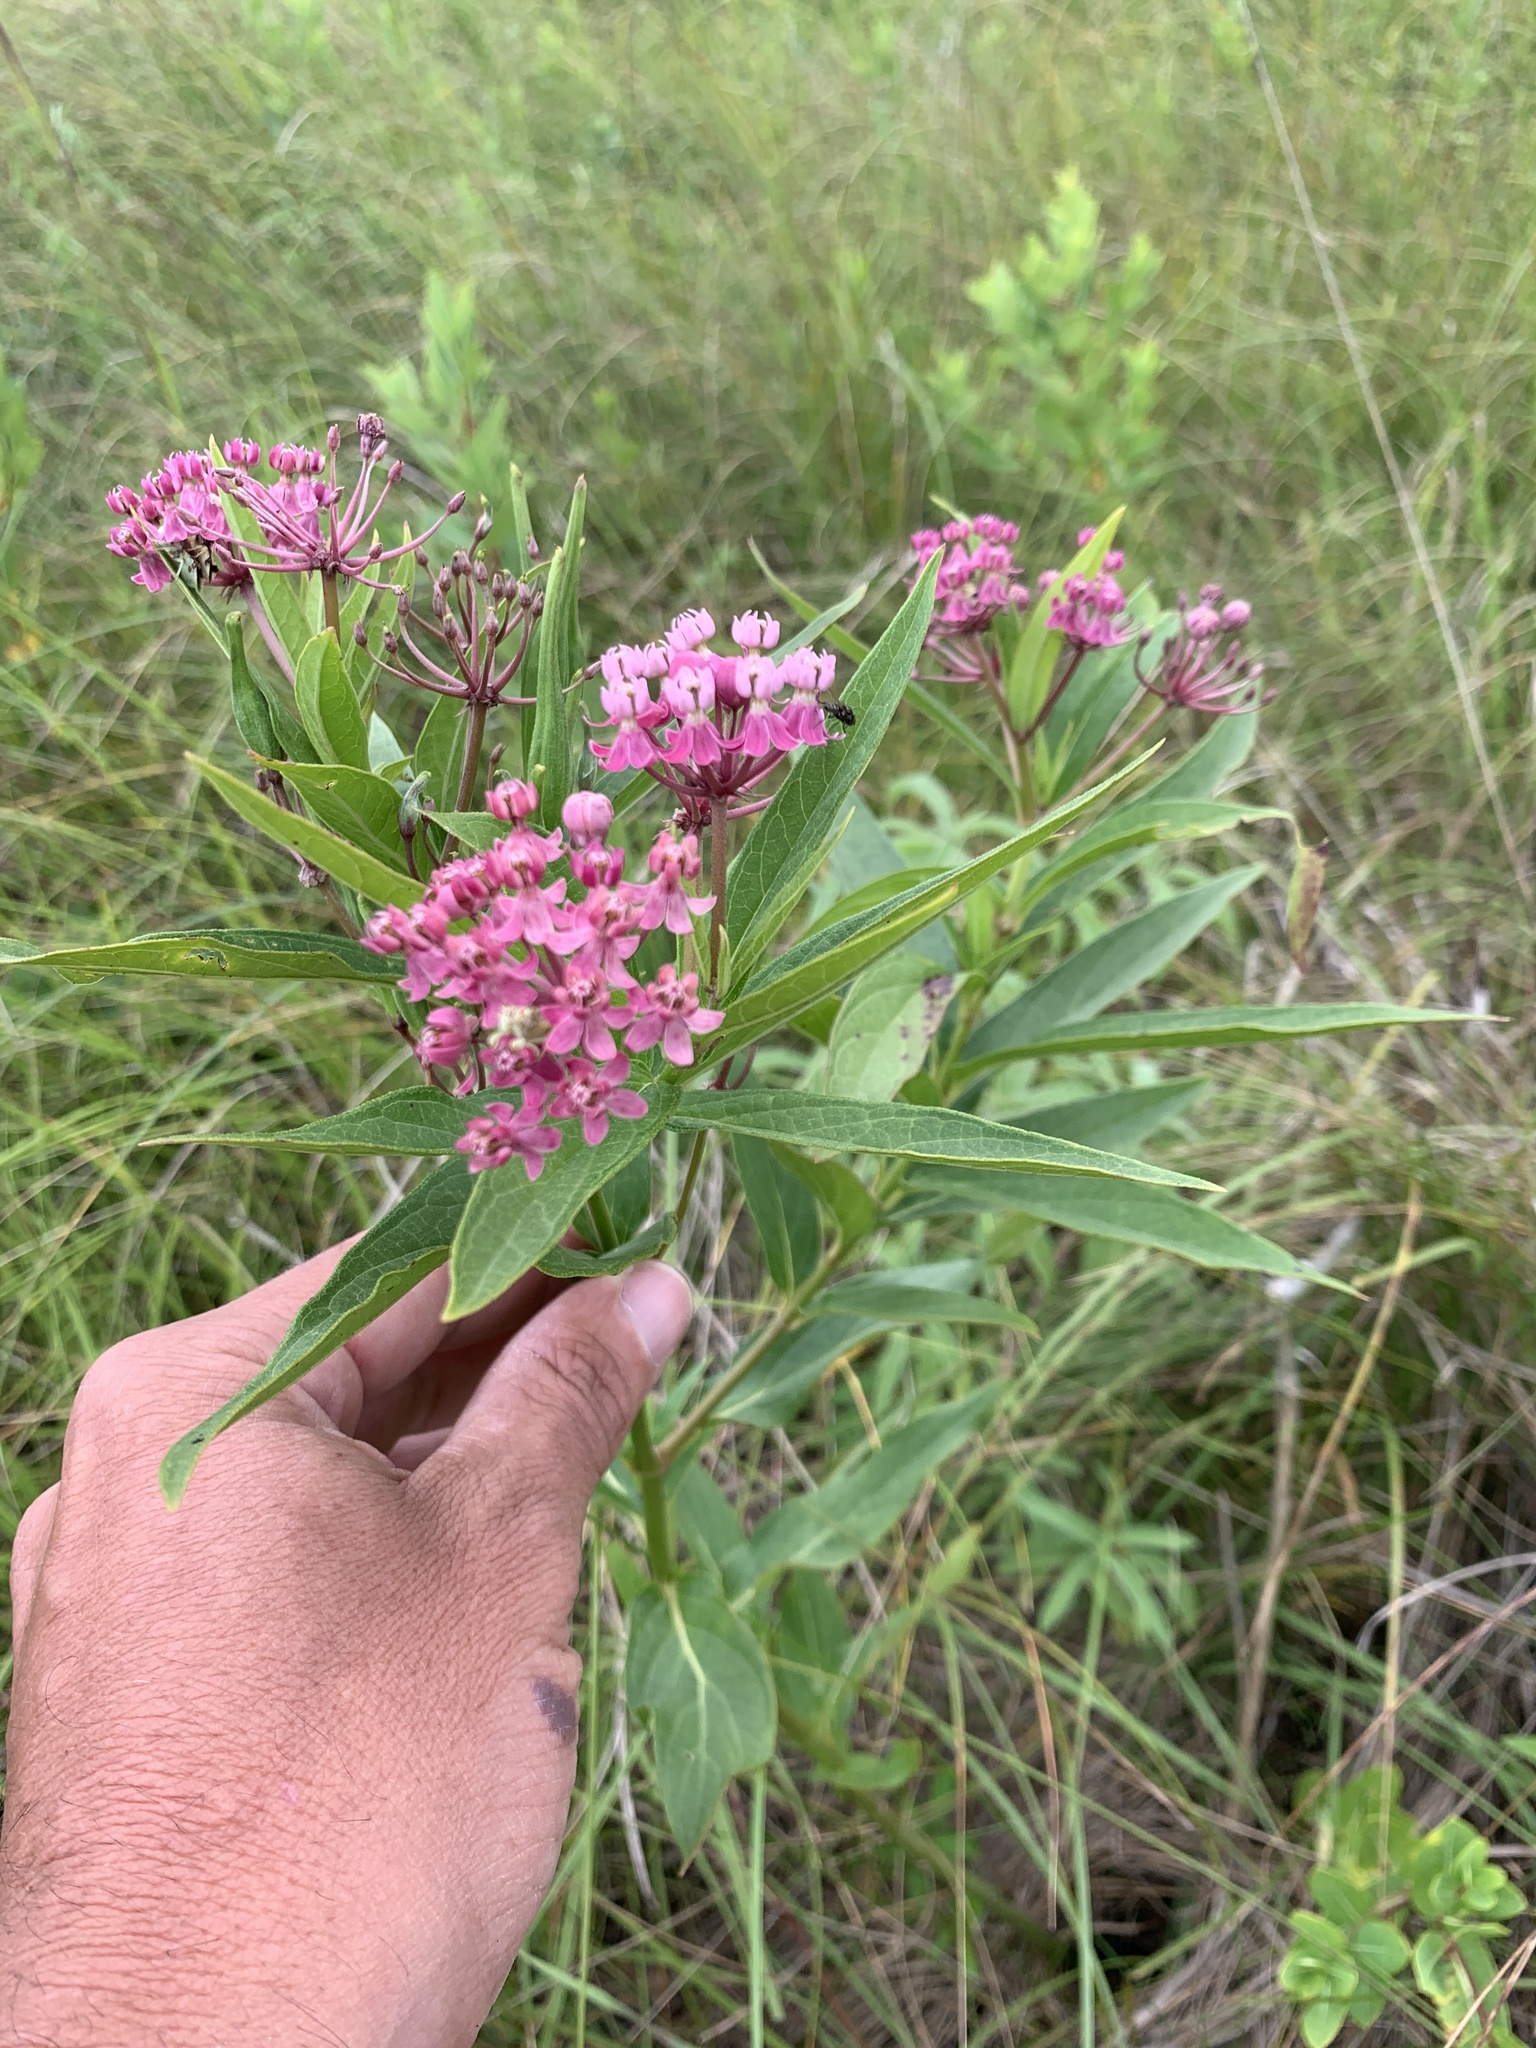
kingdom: Plantae
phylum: Tracheophyta
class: Magnoliopsida
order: Gentianales
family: Apocynaceae
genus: Asclepias
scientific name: Asclepias incarnata
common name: Swamp milkweed
